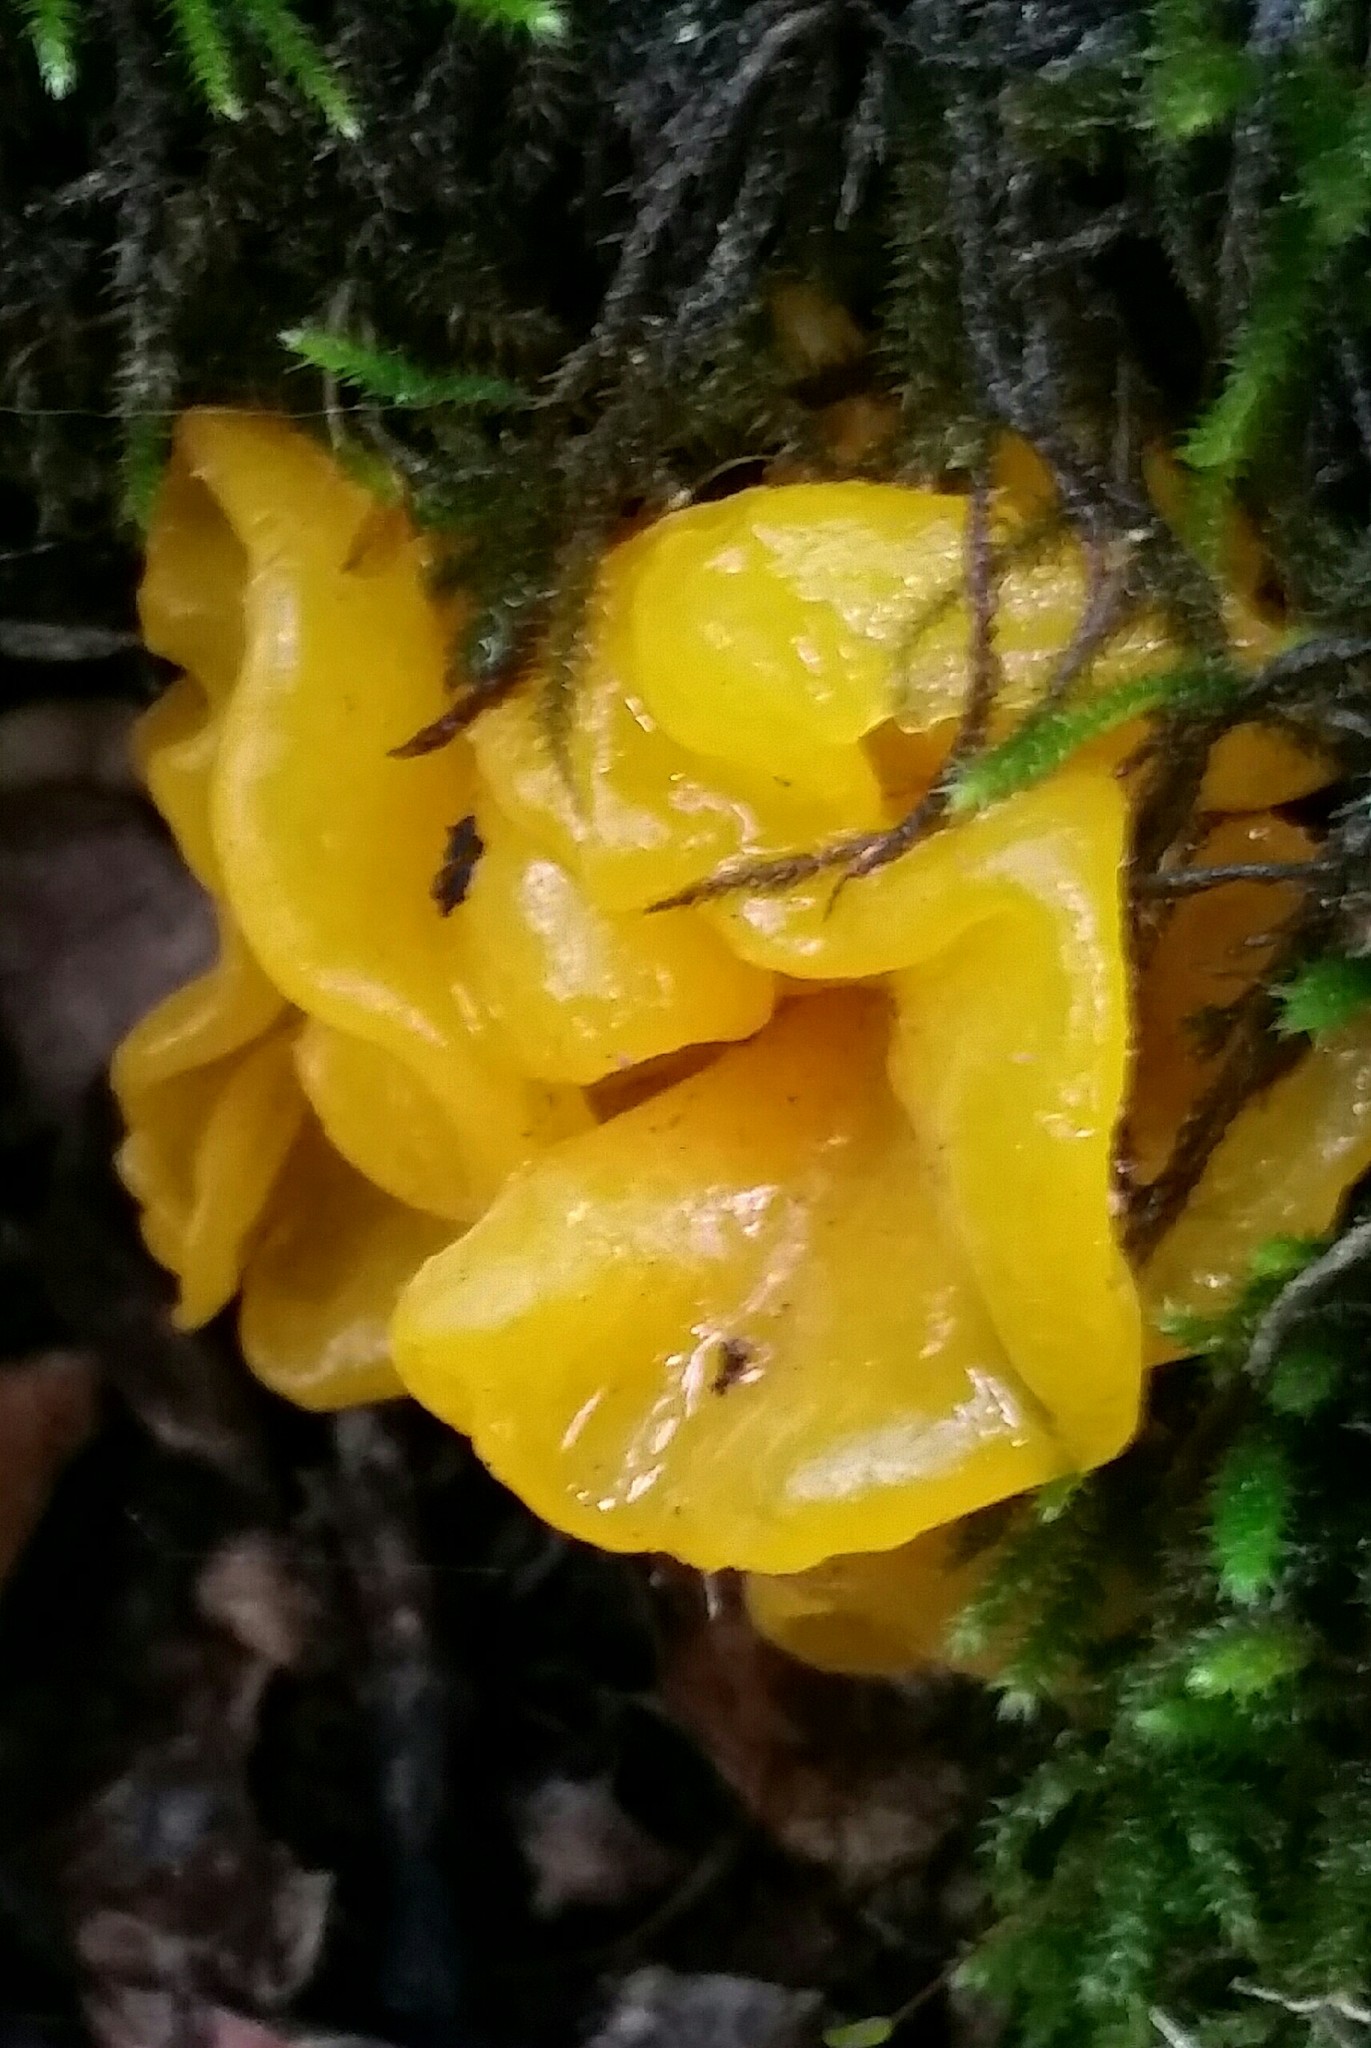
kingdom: Fungi
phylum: Basidiomycota
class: Tremellomycetes
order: Tremellales
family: Naemateliaceae
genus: Naematelia
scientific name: Naematelia aurantia
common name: Golden ear
